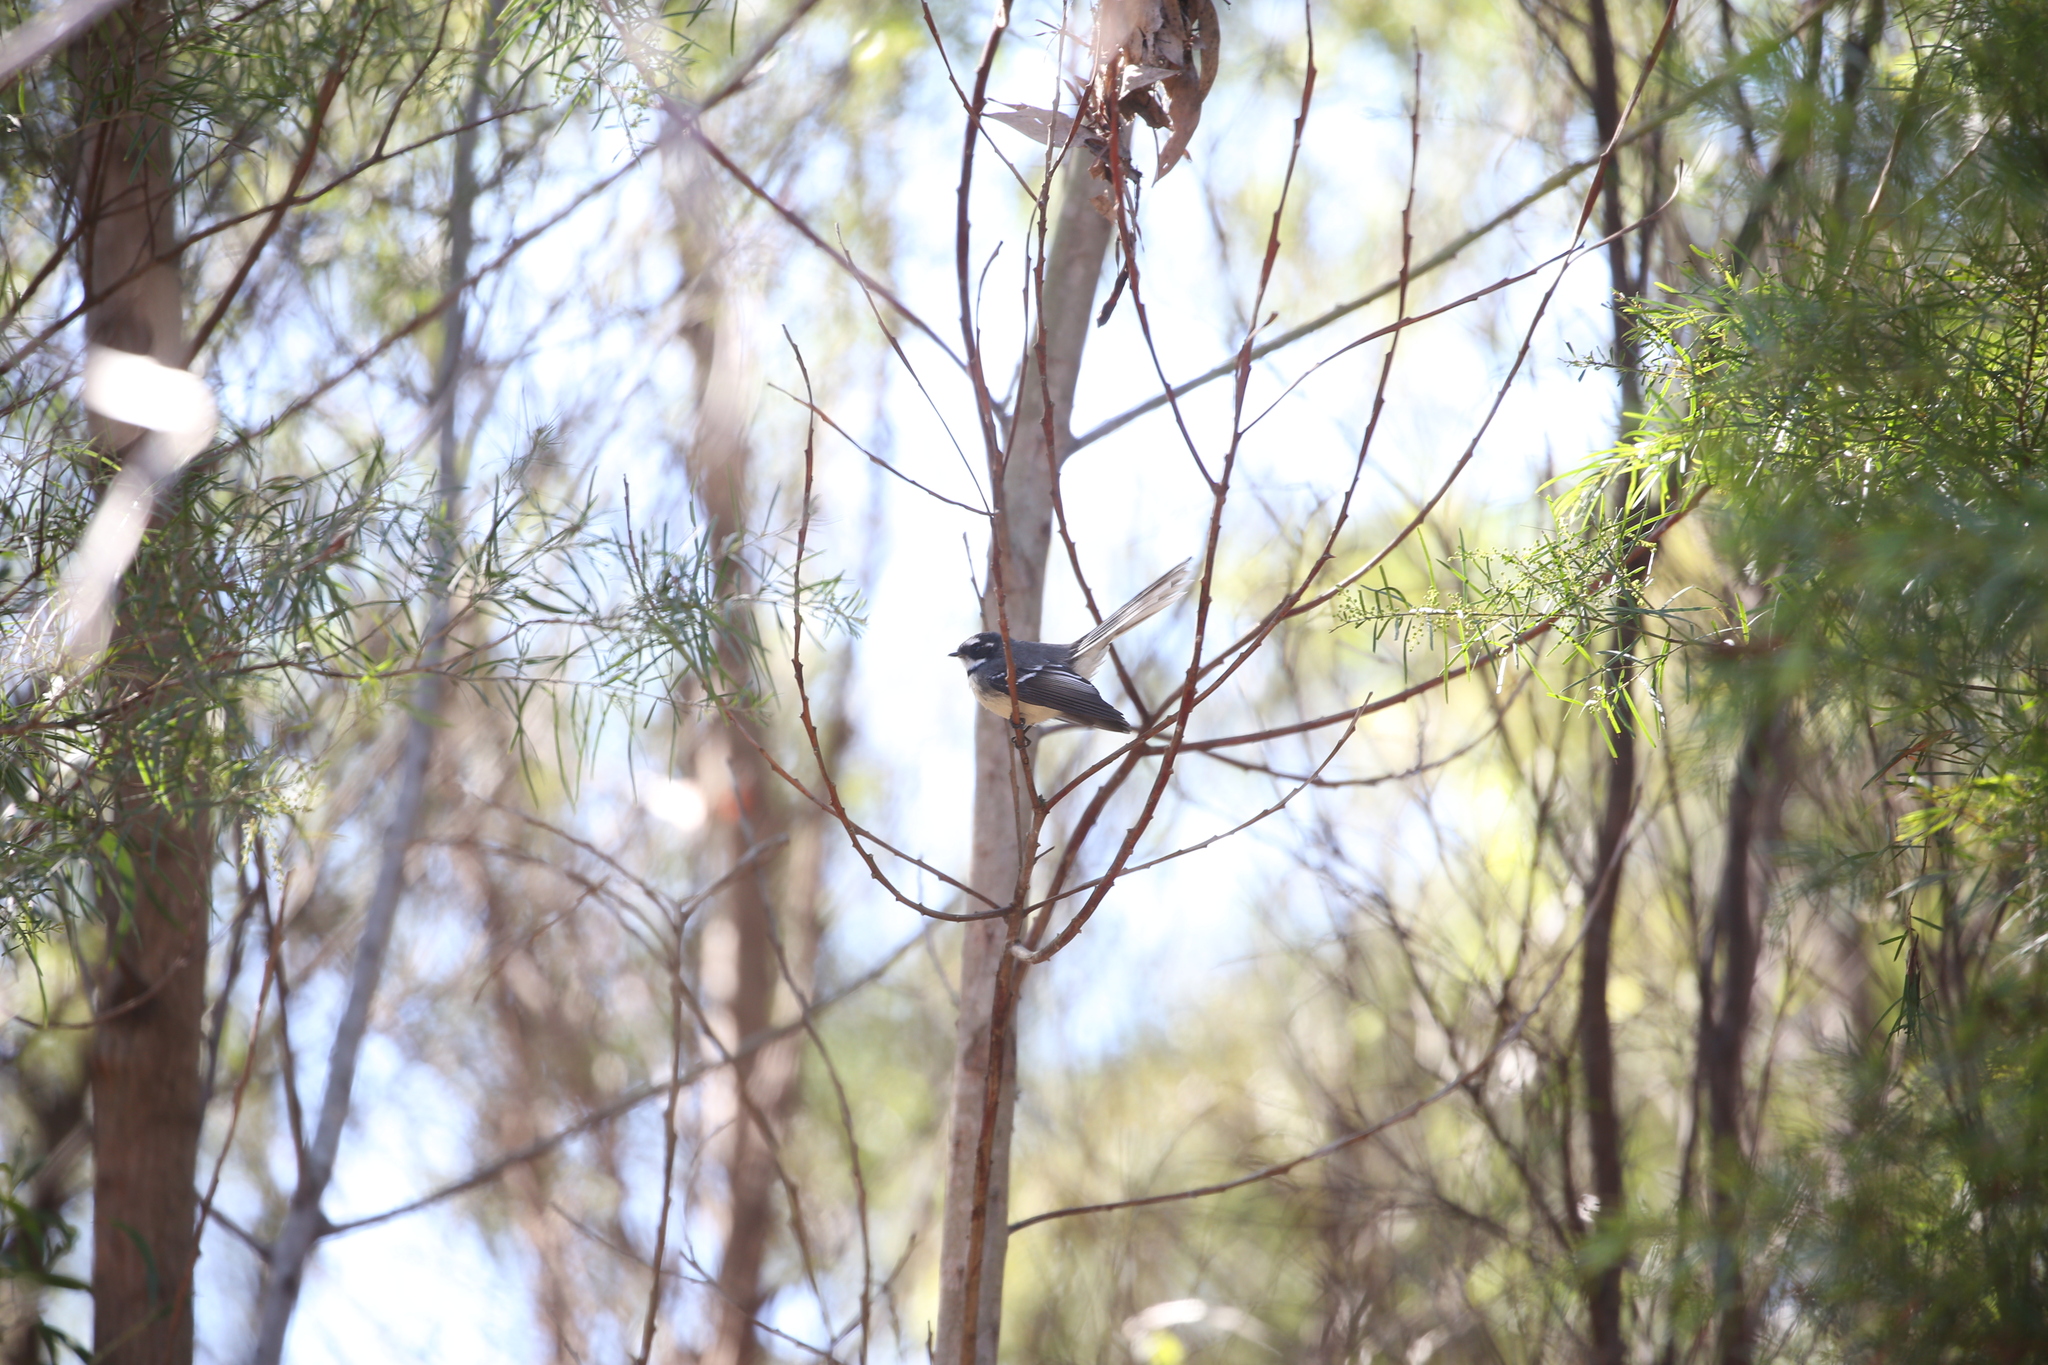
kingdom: Animalia
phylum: Chordata
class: Aves
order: Passeriformes
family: Rhipiduridae
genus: Rhipidura
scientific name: Rhipidura albiscapa
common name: Grey fantail
